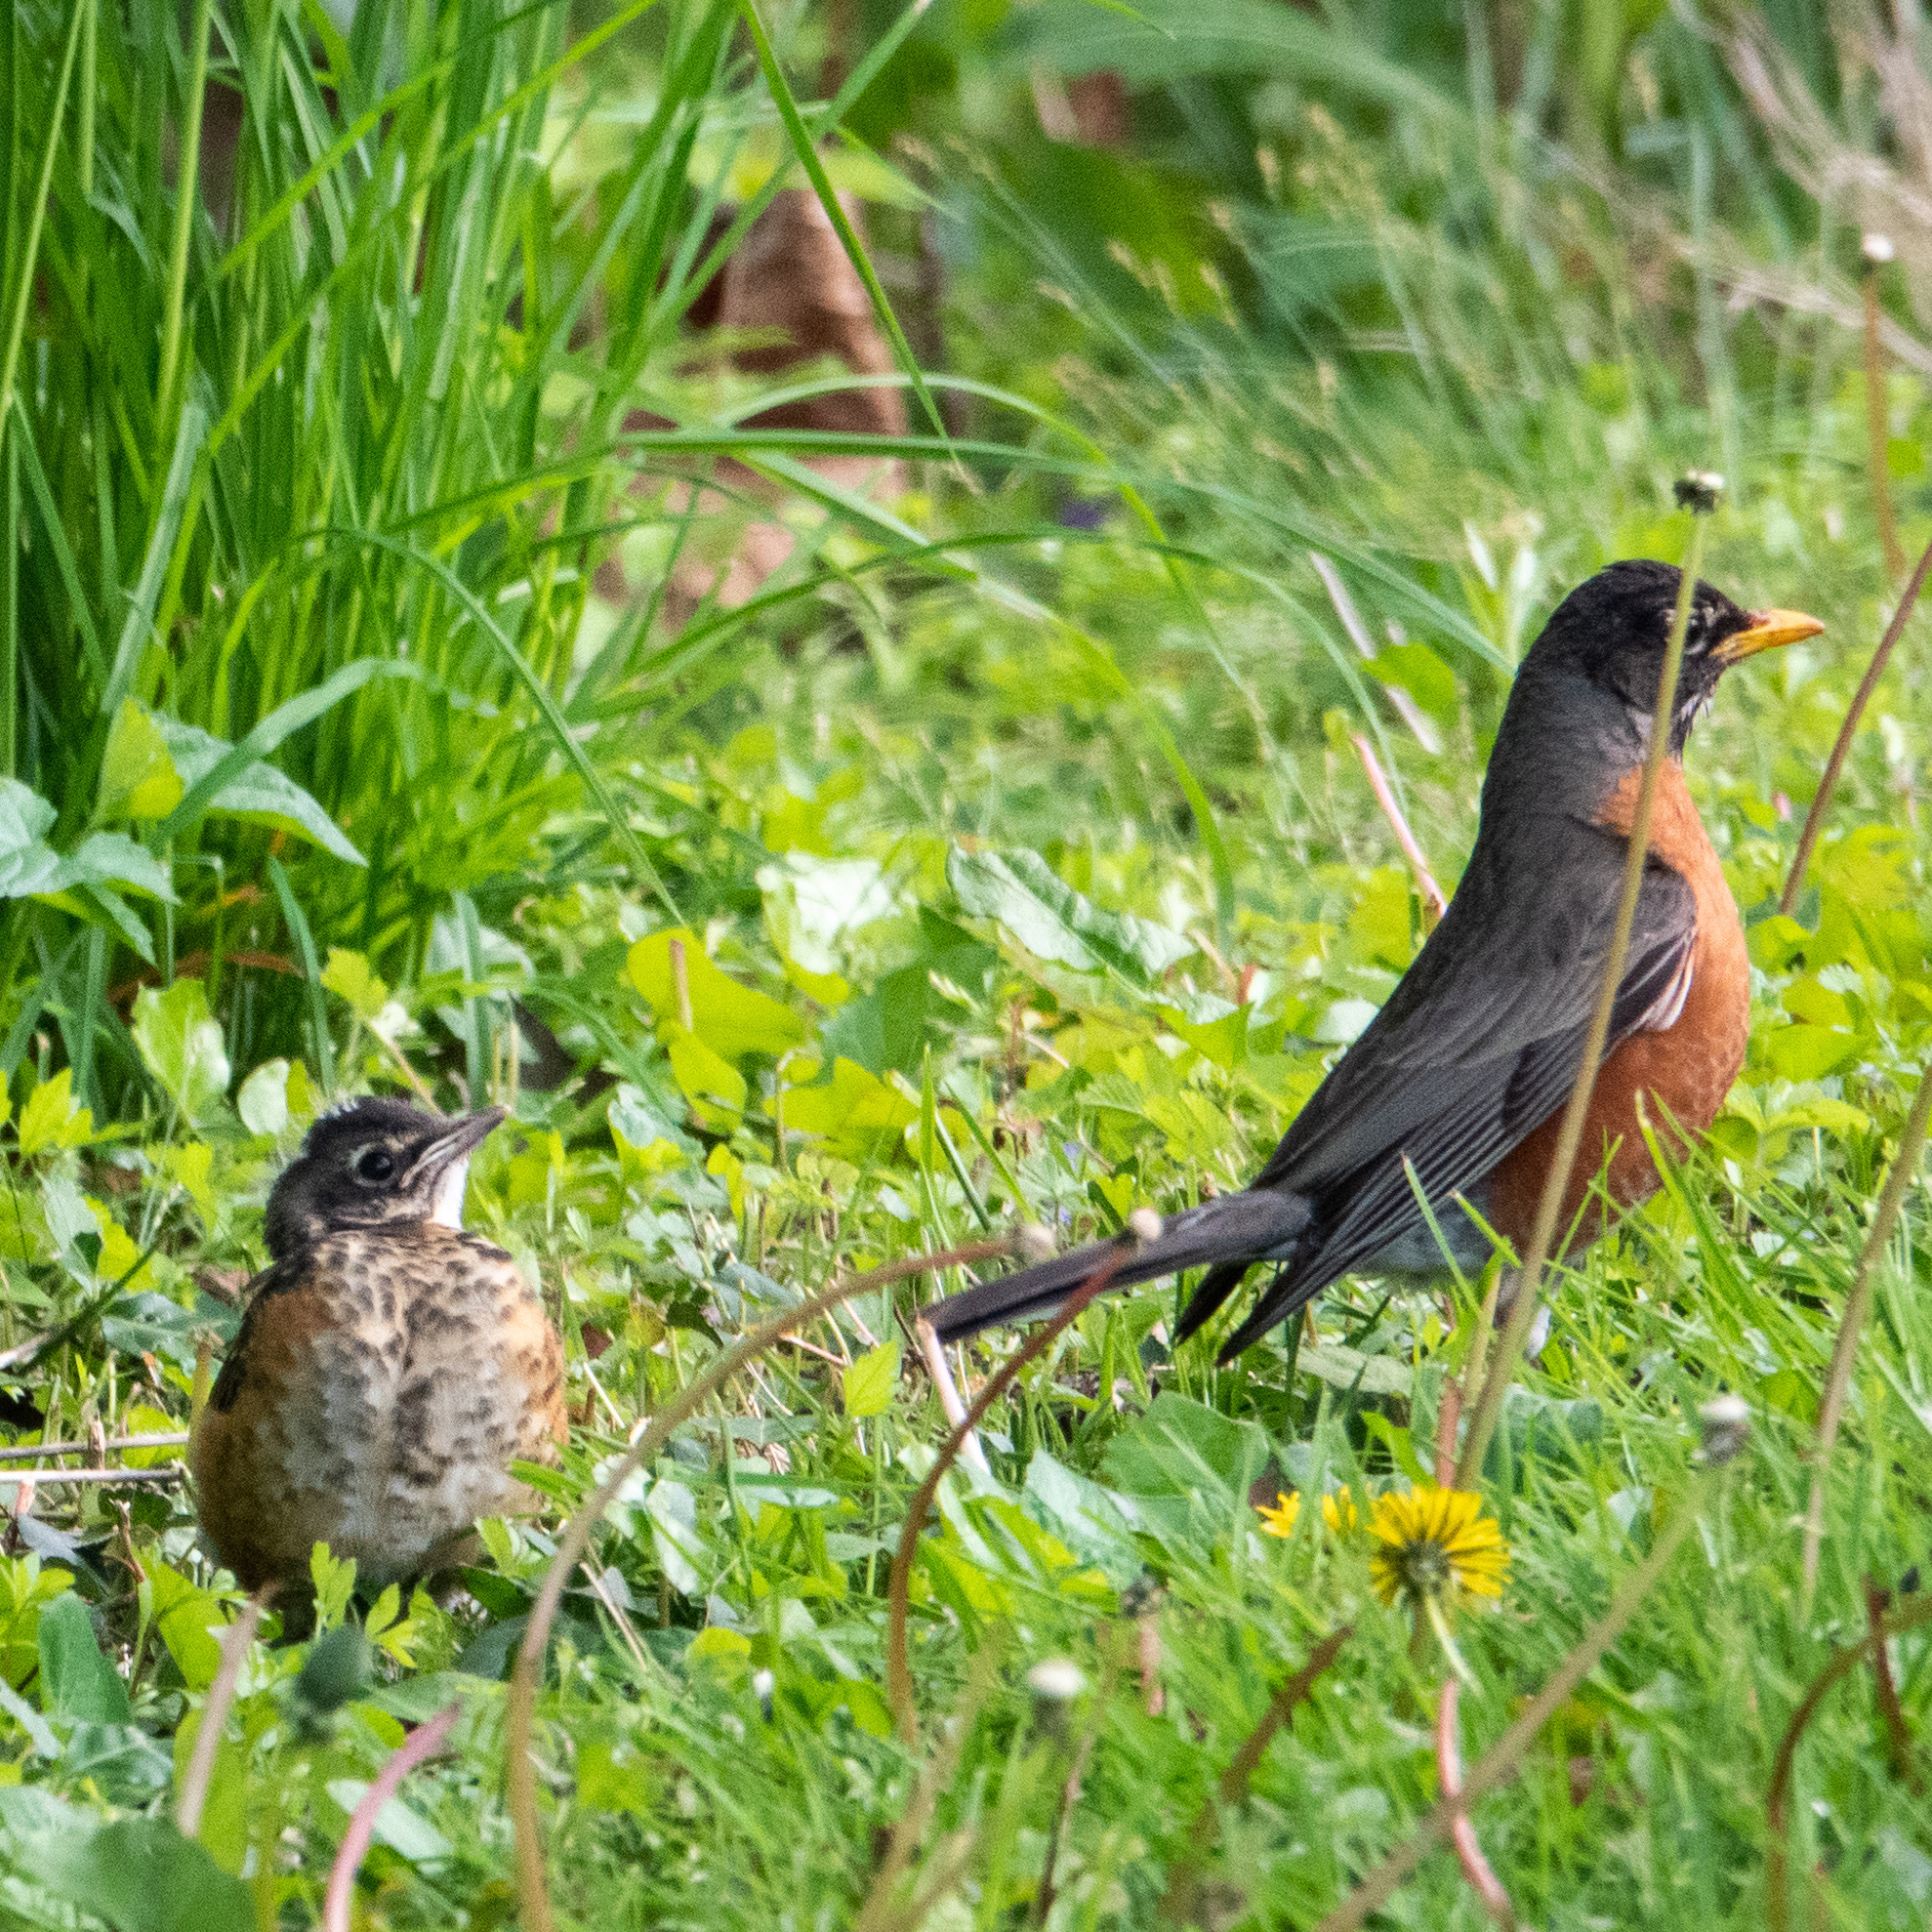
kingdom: Animalia
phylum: Chordata
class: Aves
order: Passeriformes
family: Turdidae
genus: Turdus
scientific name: Turdus migratorius
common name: American robin
